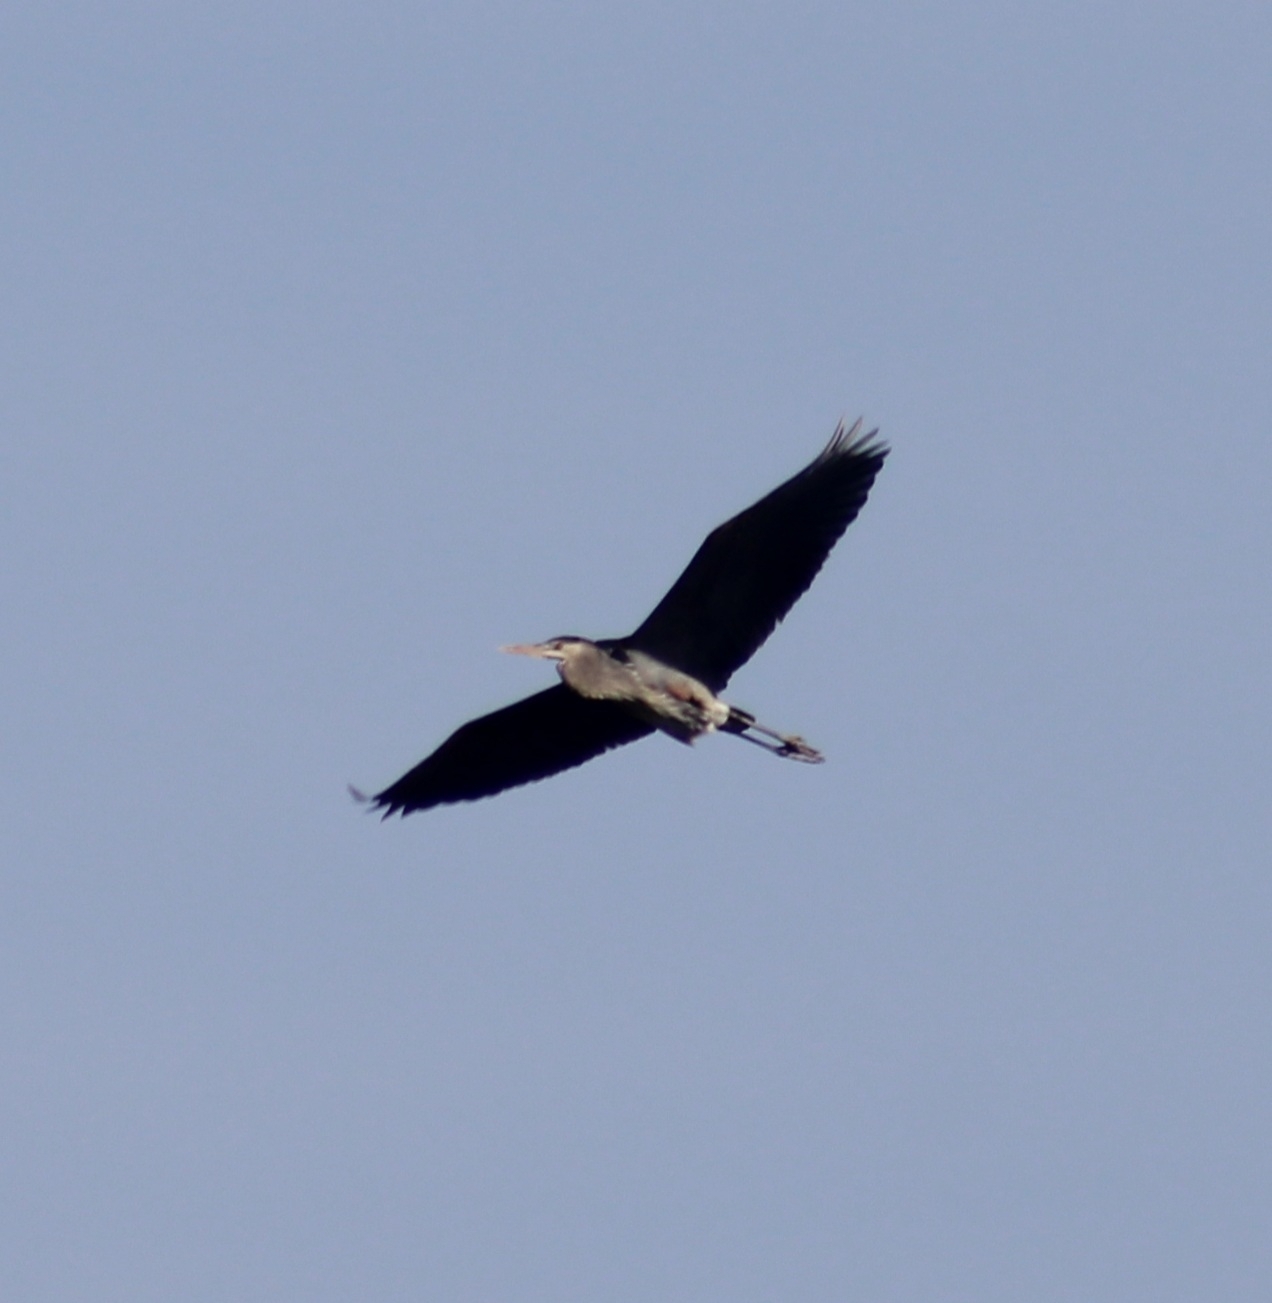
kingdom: Animalia
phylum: Chordata
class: Aves
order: Pelecaniformes
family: Ardeidae
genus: Ardea
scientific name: Ardea herodias
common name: Great blue heron
